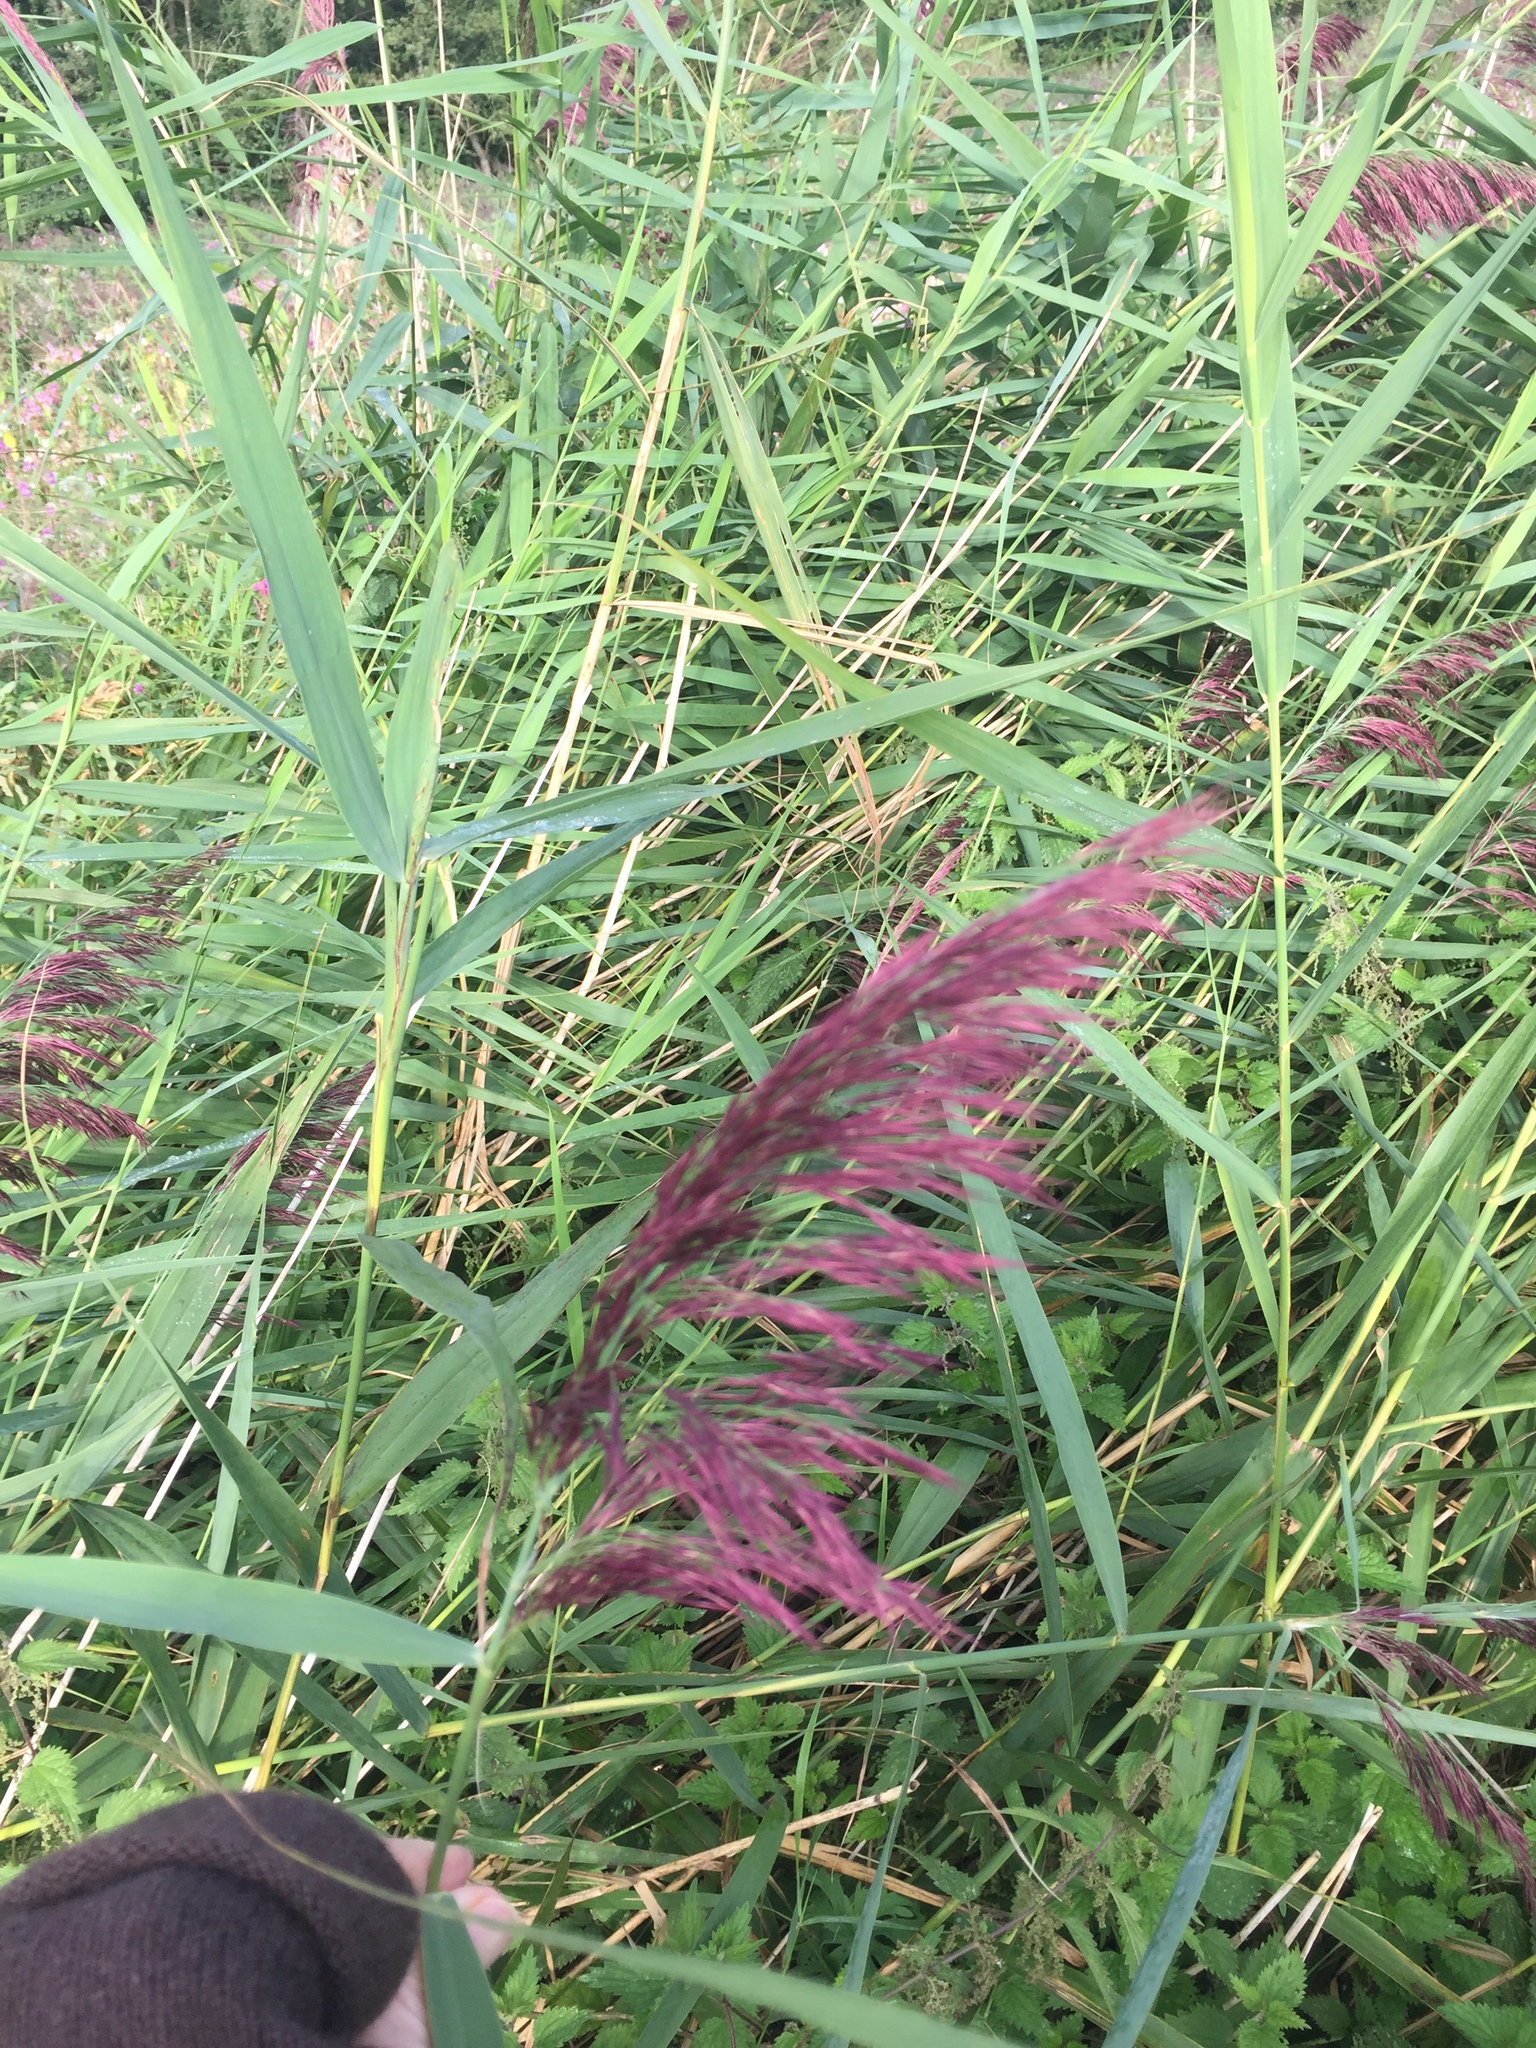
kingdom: Plantae
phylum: Tracheophyta
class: Liliopsida
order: Poales
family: Poaceae
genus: Phragmites
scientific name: Phragmites australis
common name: Common reed
